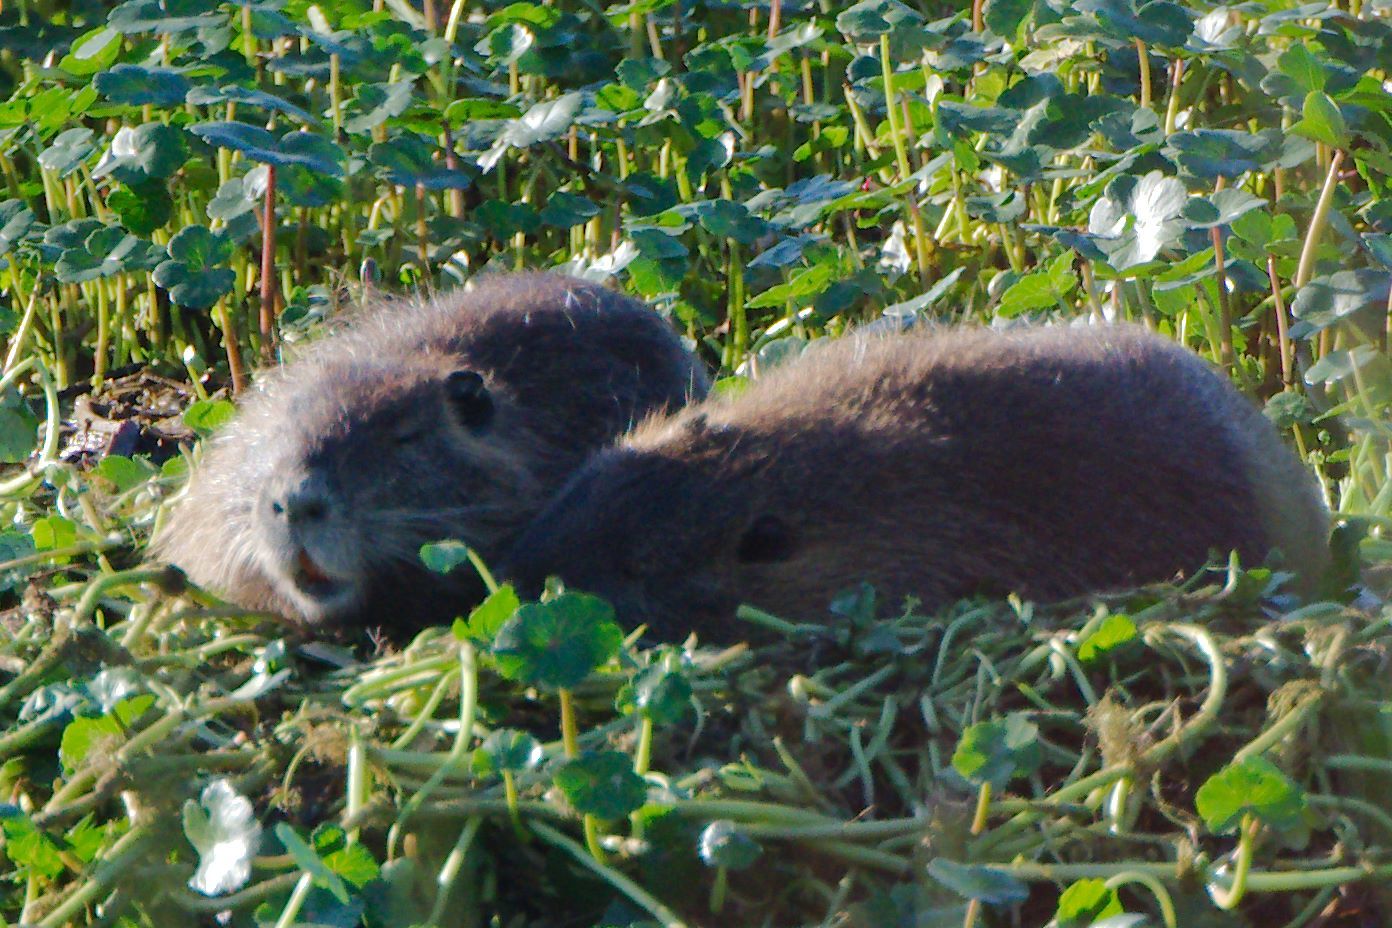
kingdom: Animalia
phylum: Chordata
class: Mammalia
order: Rodentia
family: Myocastoridae
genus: Myocastor
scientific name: Myocastor coypus
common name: Coypu
